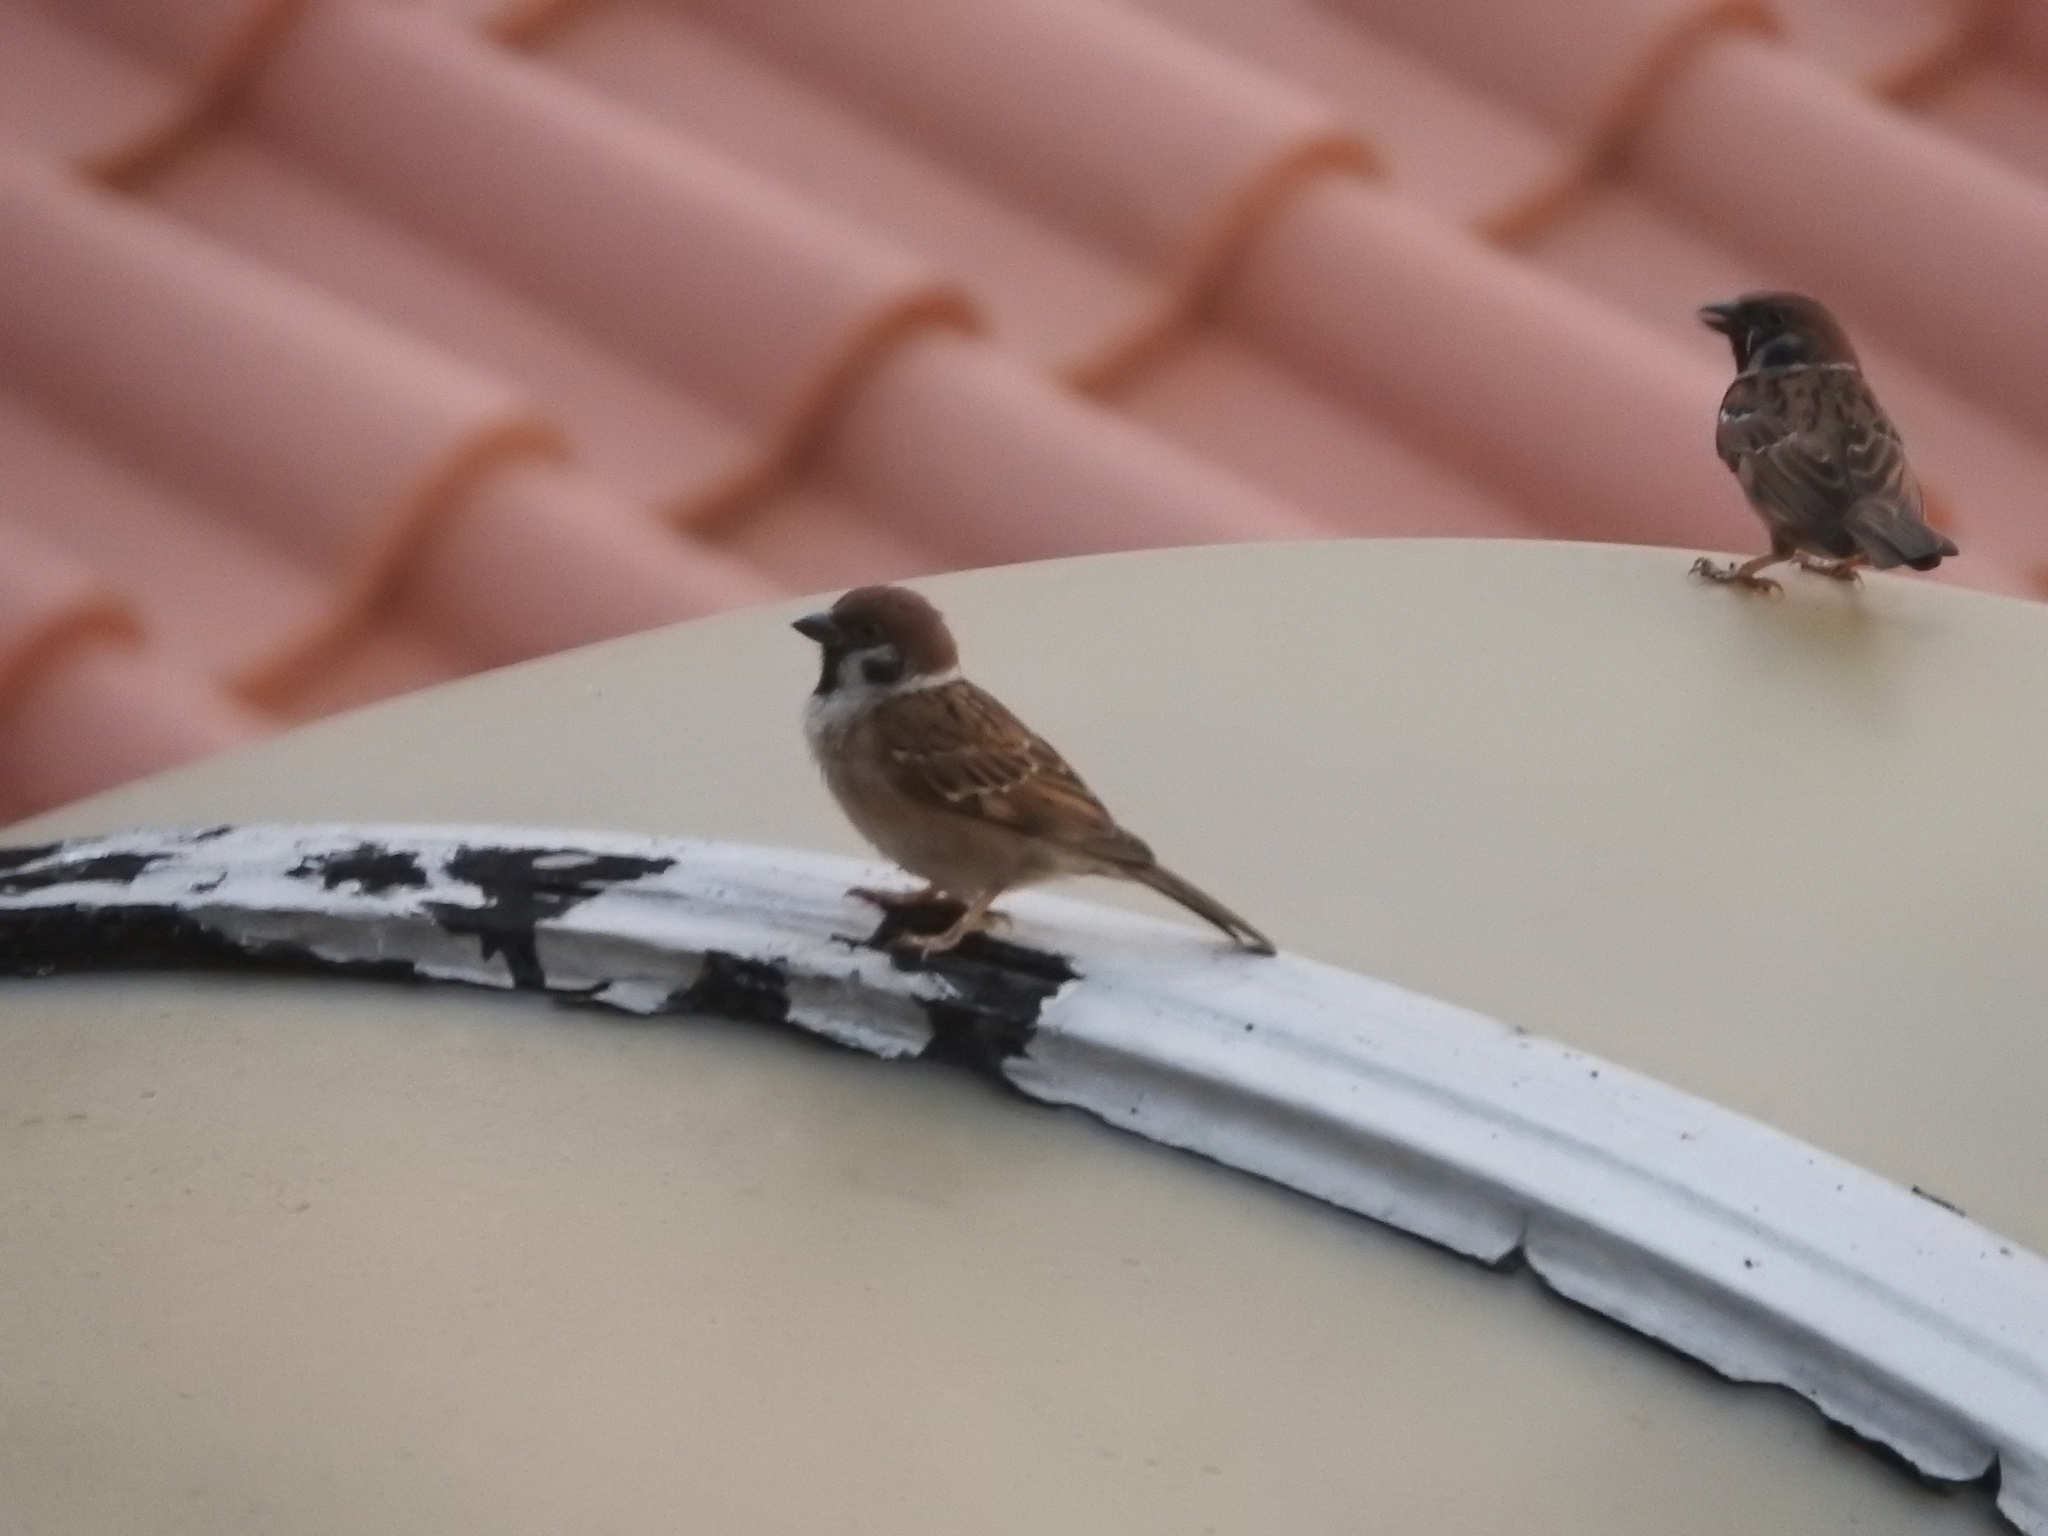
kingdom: Animalia
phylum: Chordata
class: Aves
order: Passeriformes
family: Passeridae
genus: Passer
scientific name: Passer montanus
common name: Eurasian tree sparrow
